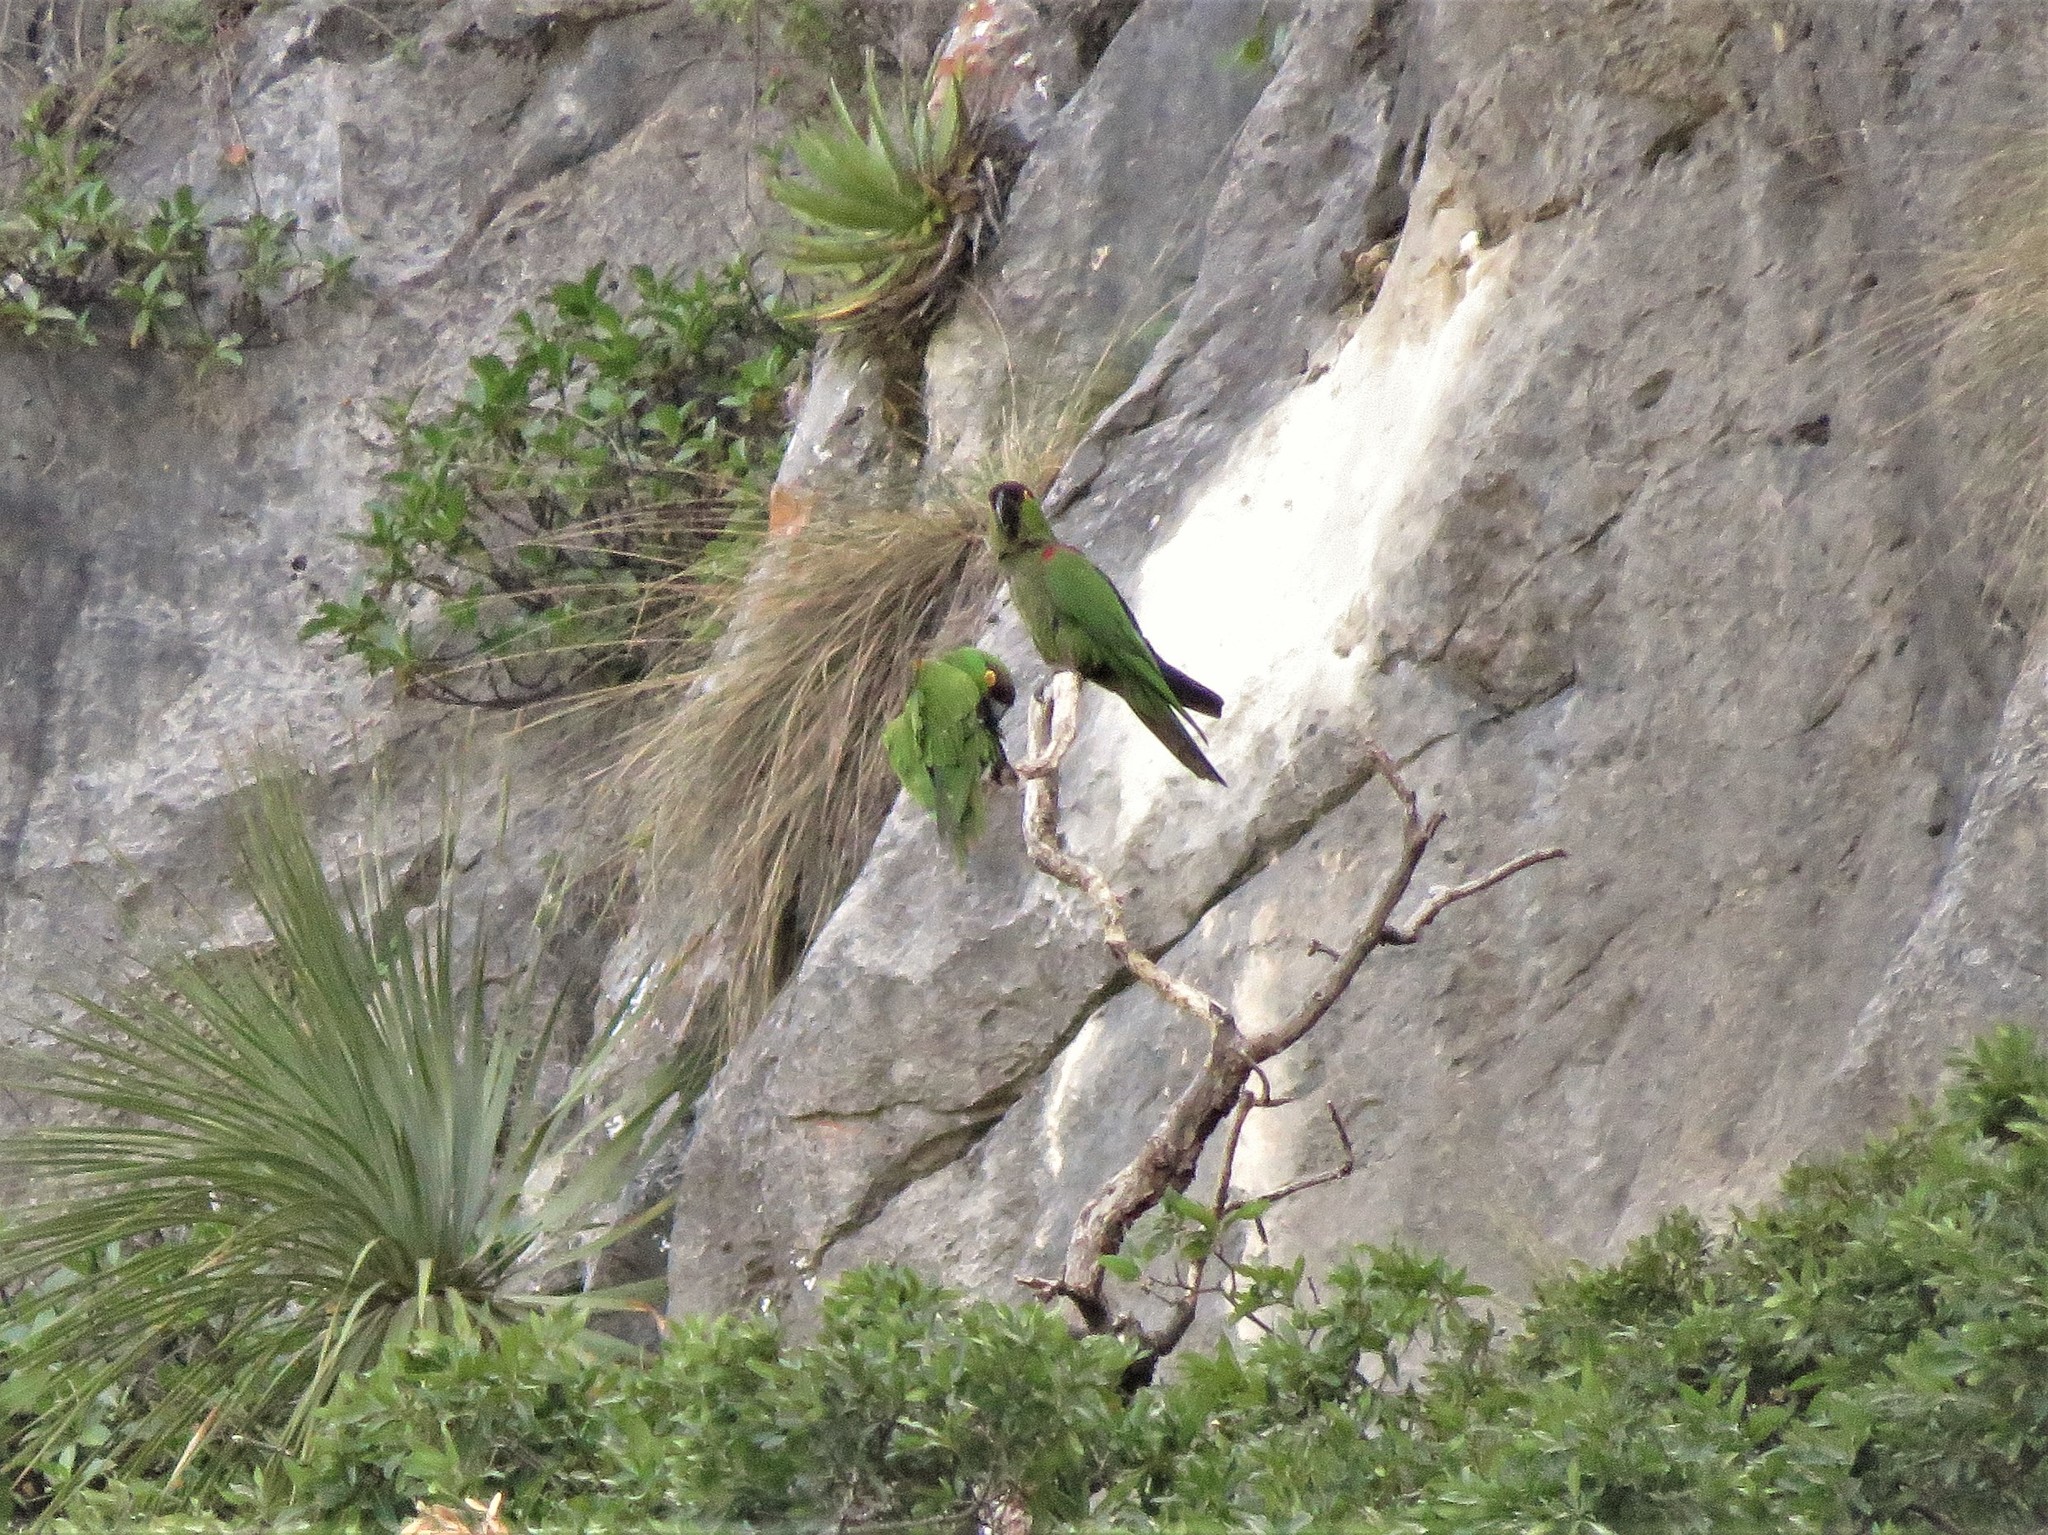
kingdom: Animalia
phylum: Chordata
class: Aves
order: Psittaciformes
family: Psittacidae
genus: Rhynchopsitta
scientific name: Rhynchopsitta terrisi
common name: Maroon-fronted parrot
